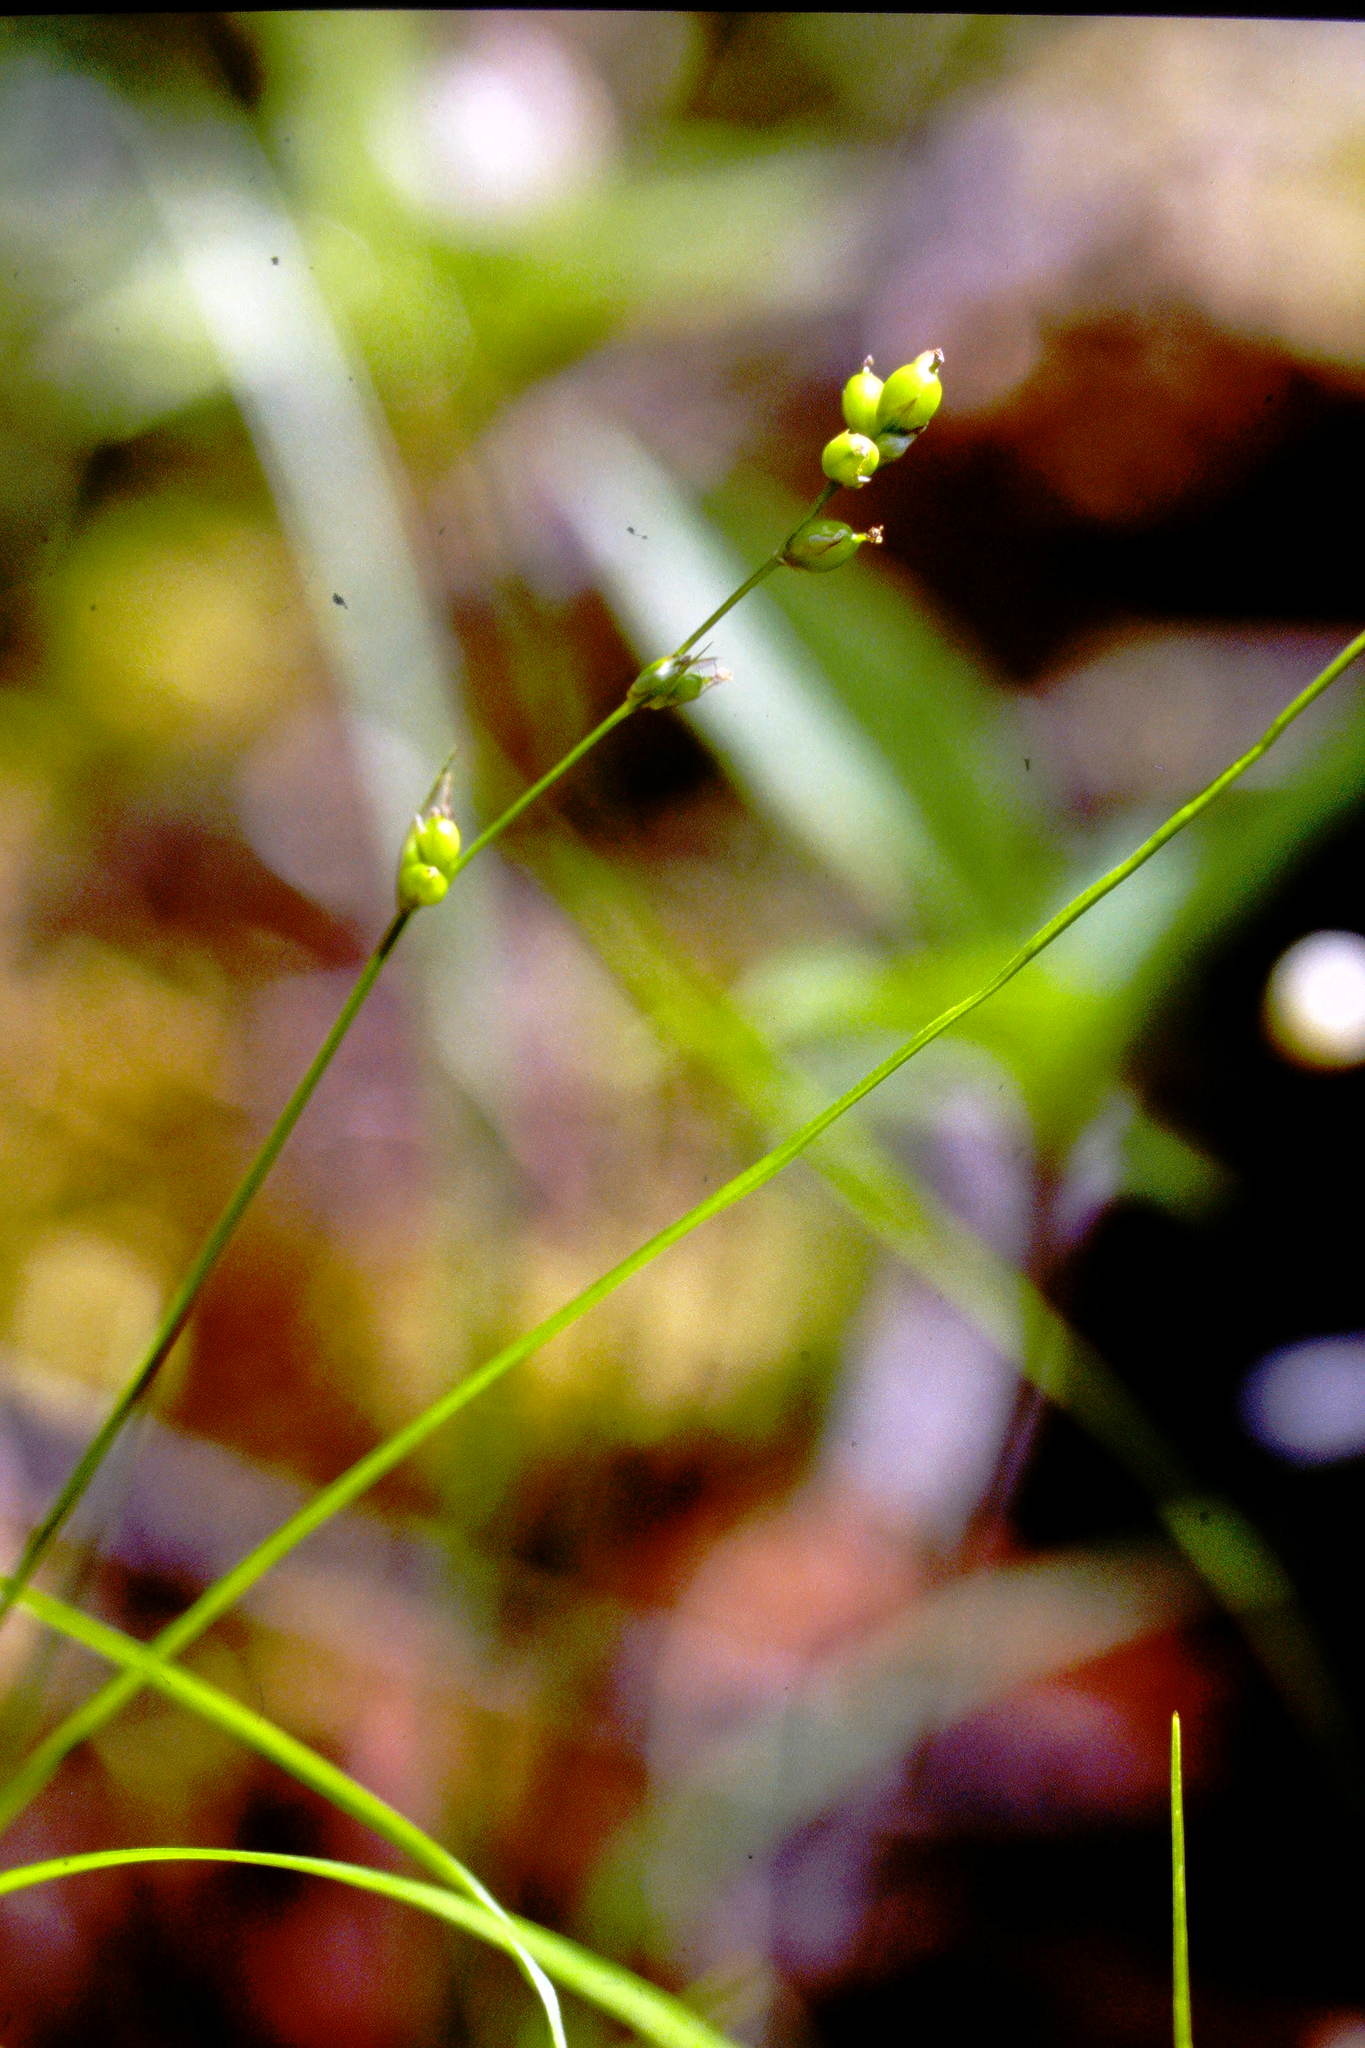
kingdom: Plantae
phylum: Tracheophyta
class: Liliopsida
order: Poales
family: Cyperaceae
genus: Carex
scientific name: Carex disperma
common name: Short-leaved sedge
